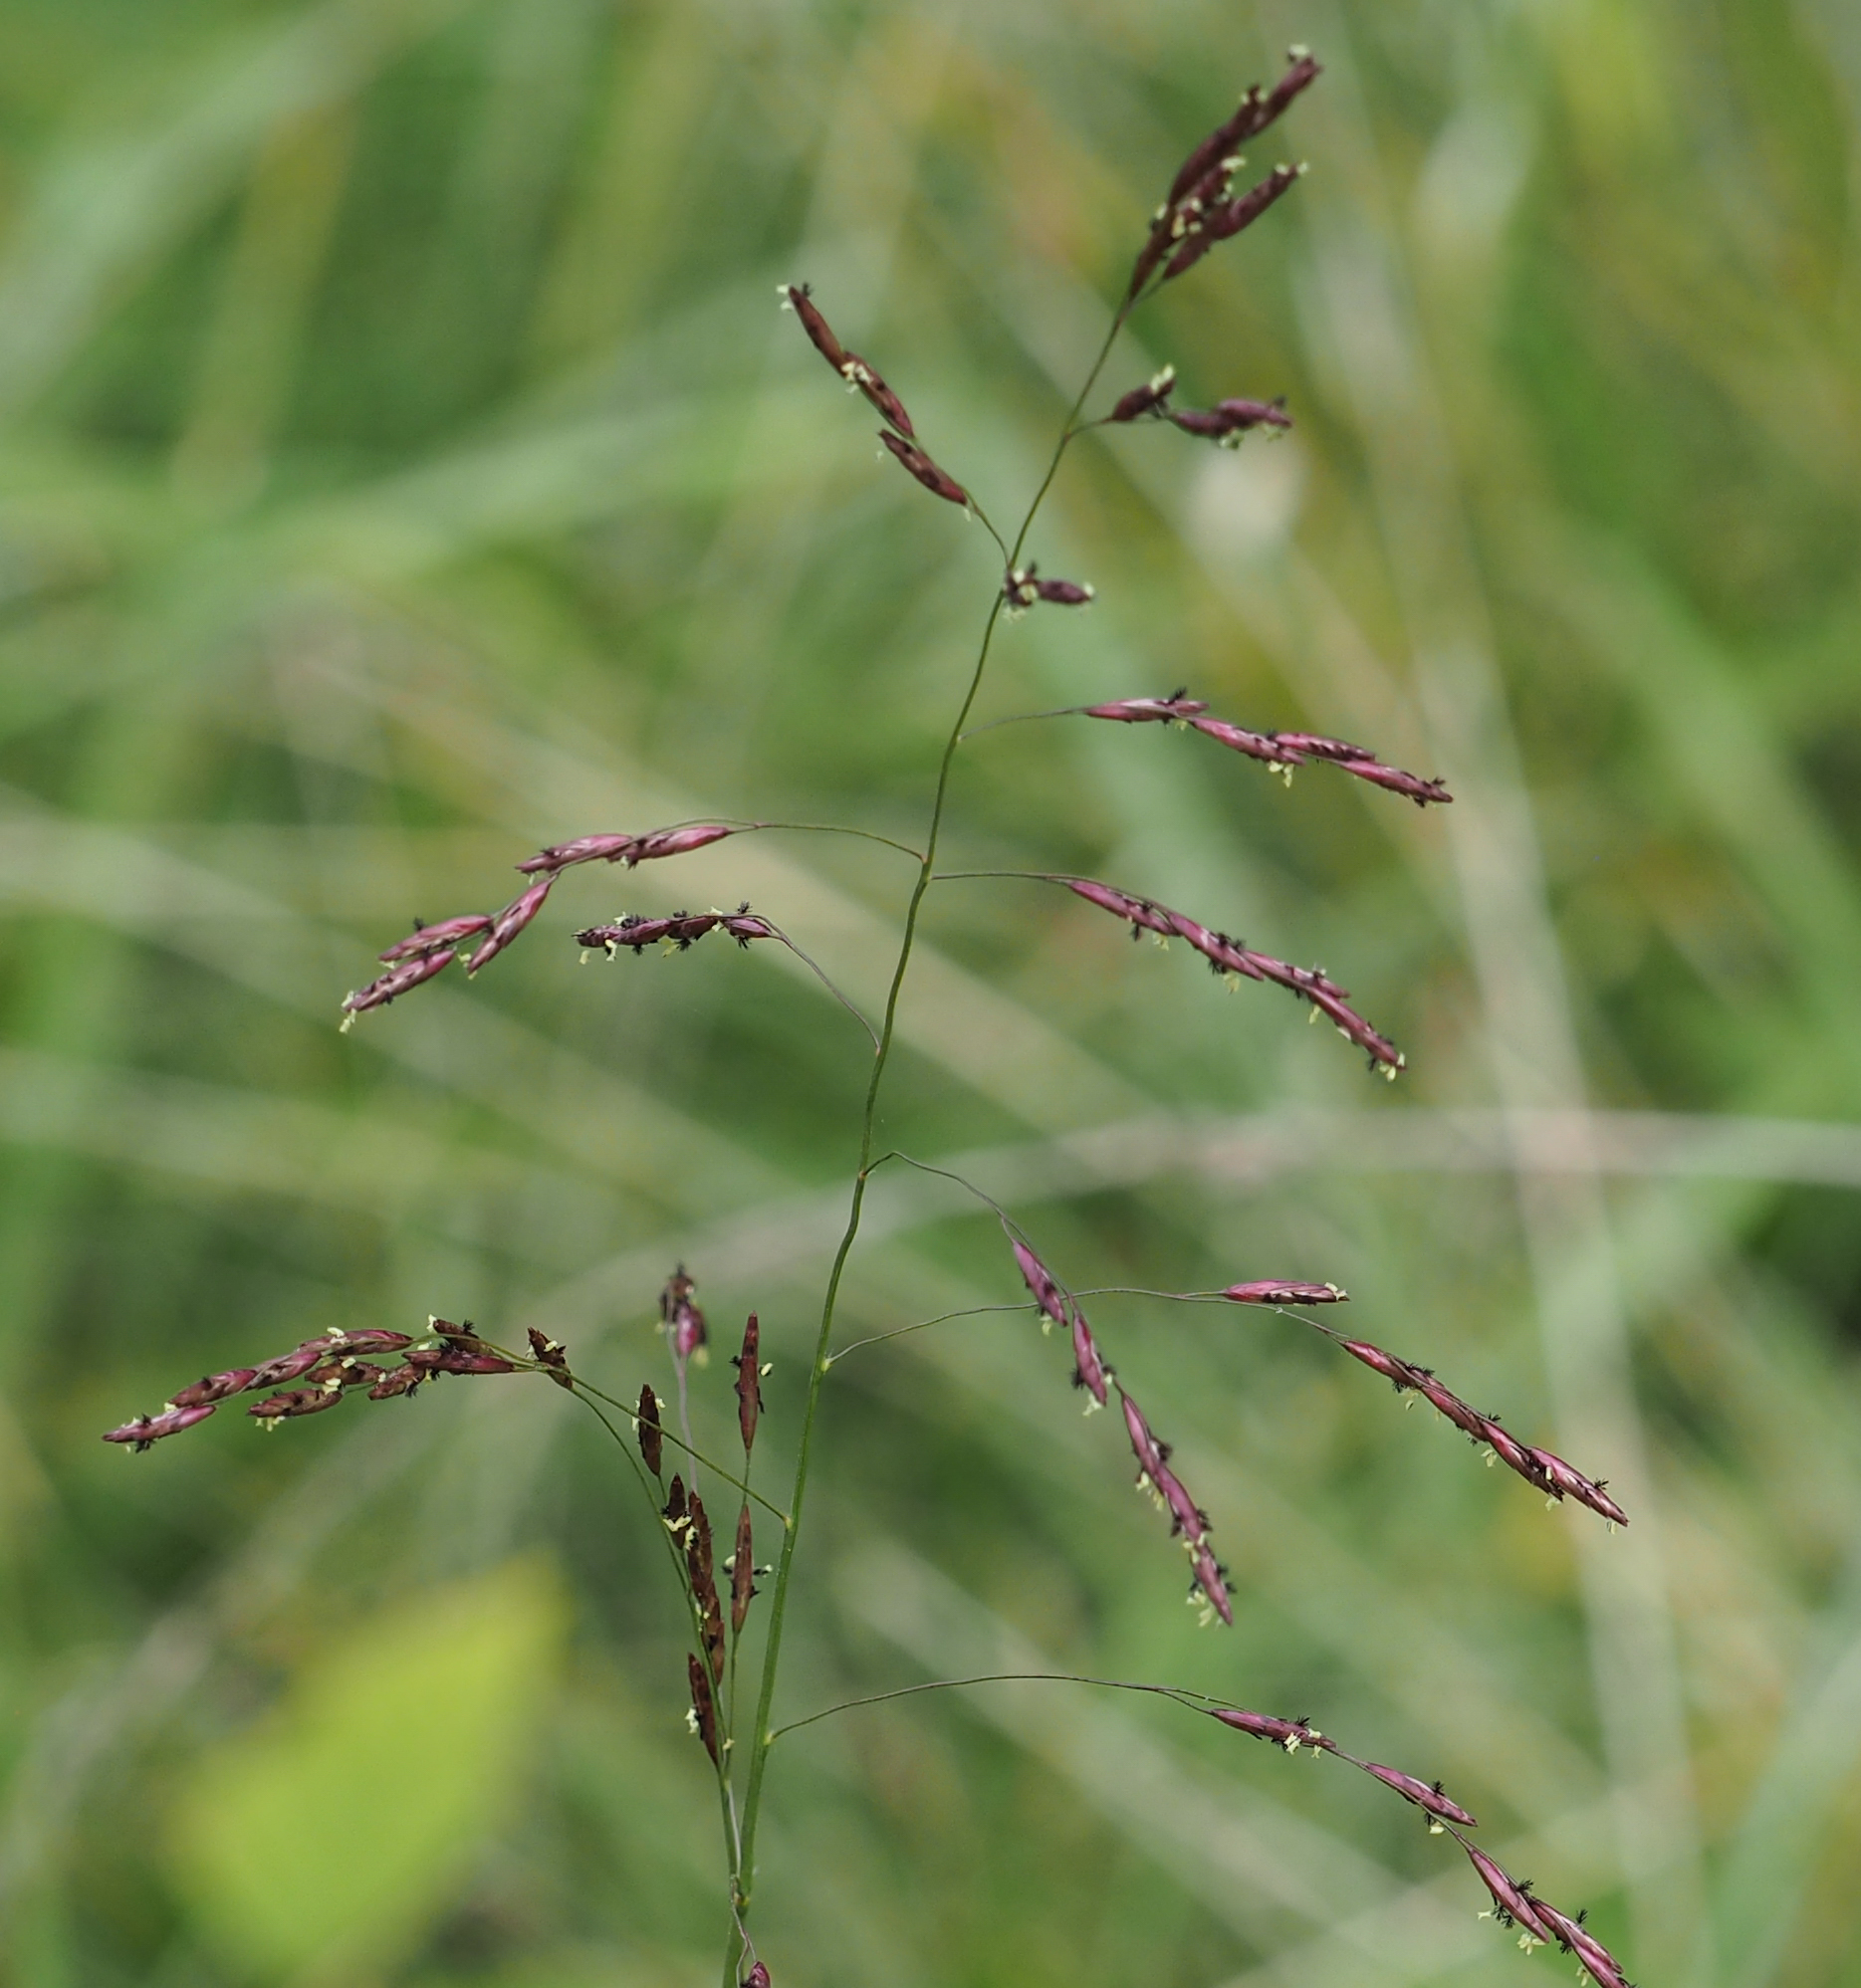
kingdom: Plantae
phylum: Tracheophyta
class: Liliopsida
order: Poales
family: Poaceae
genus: Tridens
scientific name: Tridens flavus
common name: Purpletop
